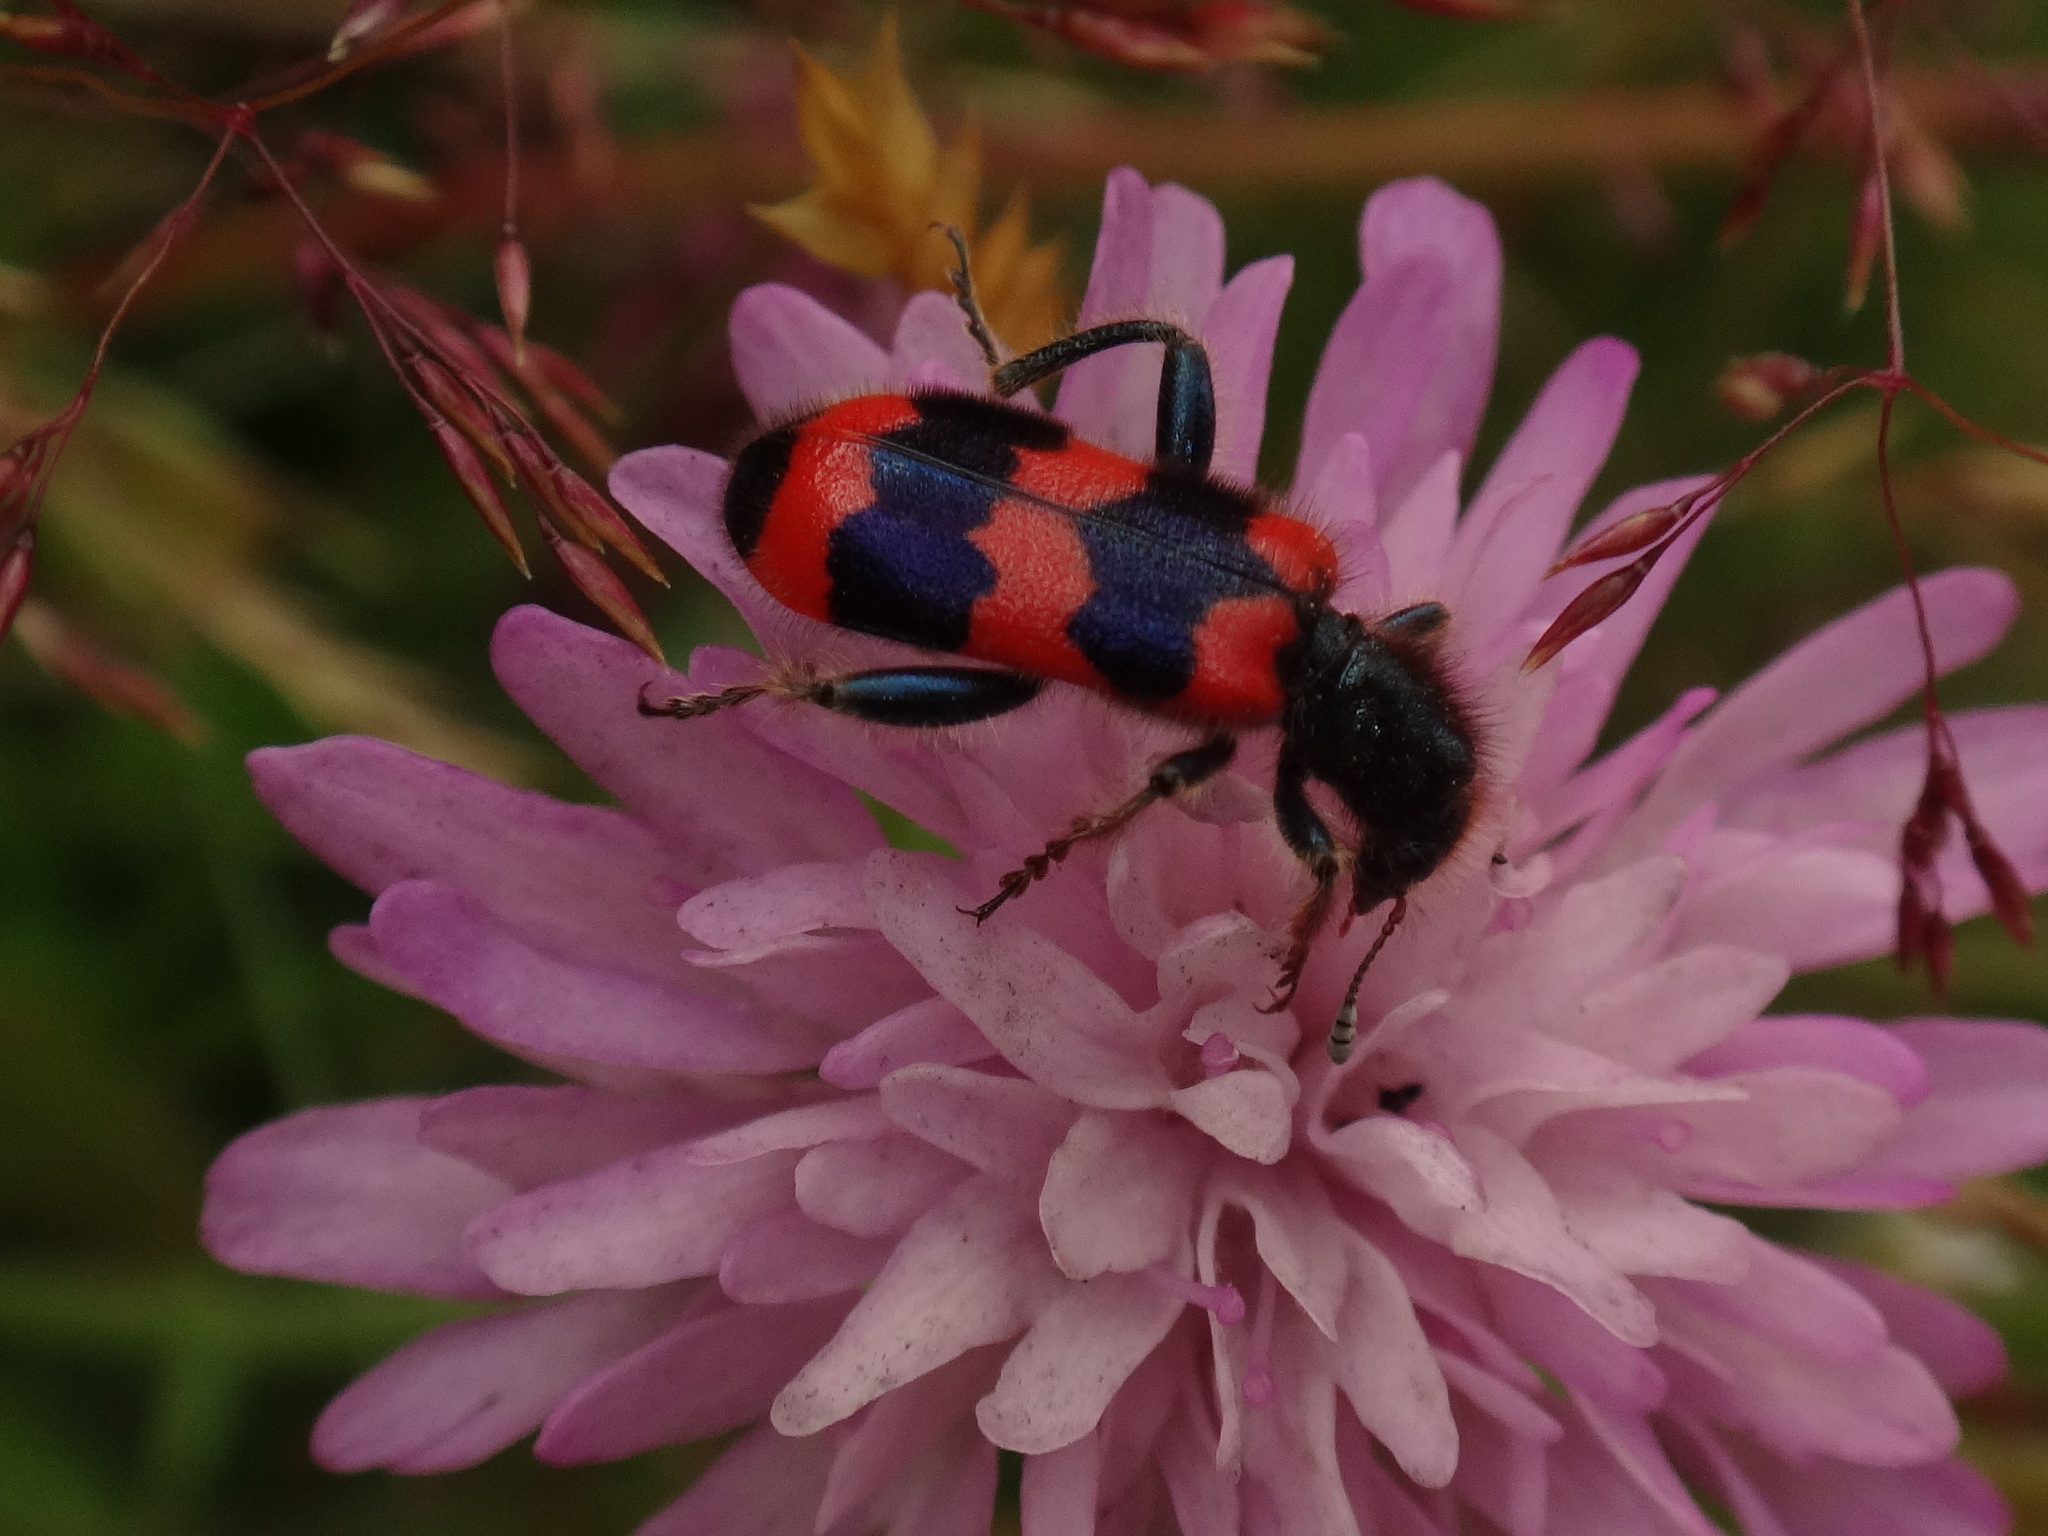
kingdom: Animalia
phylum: Arthropoda
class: Insecta
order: Coleoptera
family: Cleridae
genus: Trichodes
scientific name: Trichodes apiarius
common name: Bee-eating beetle
